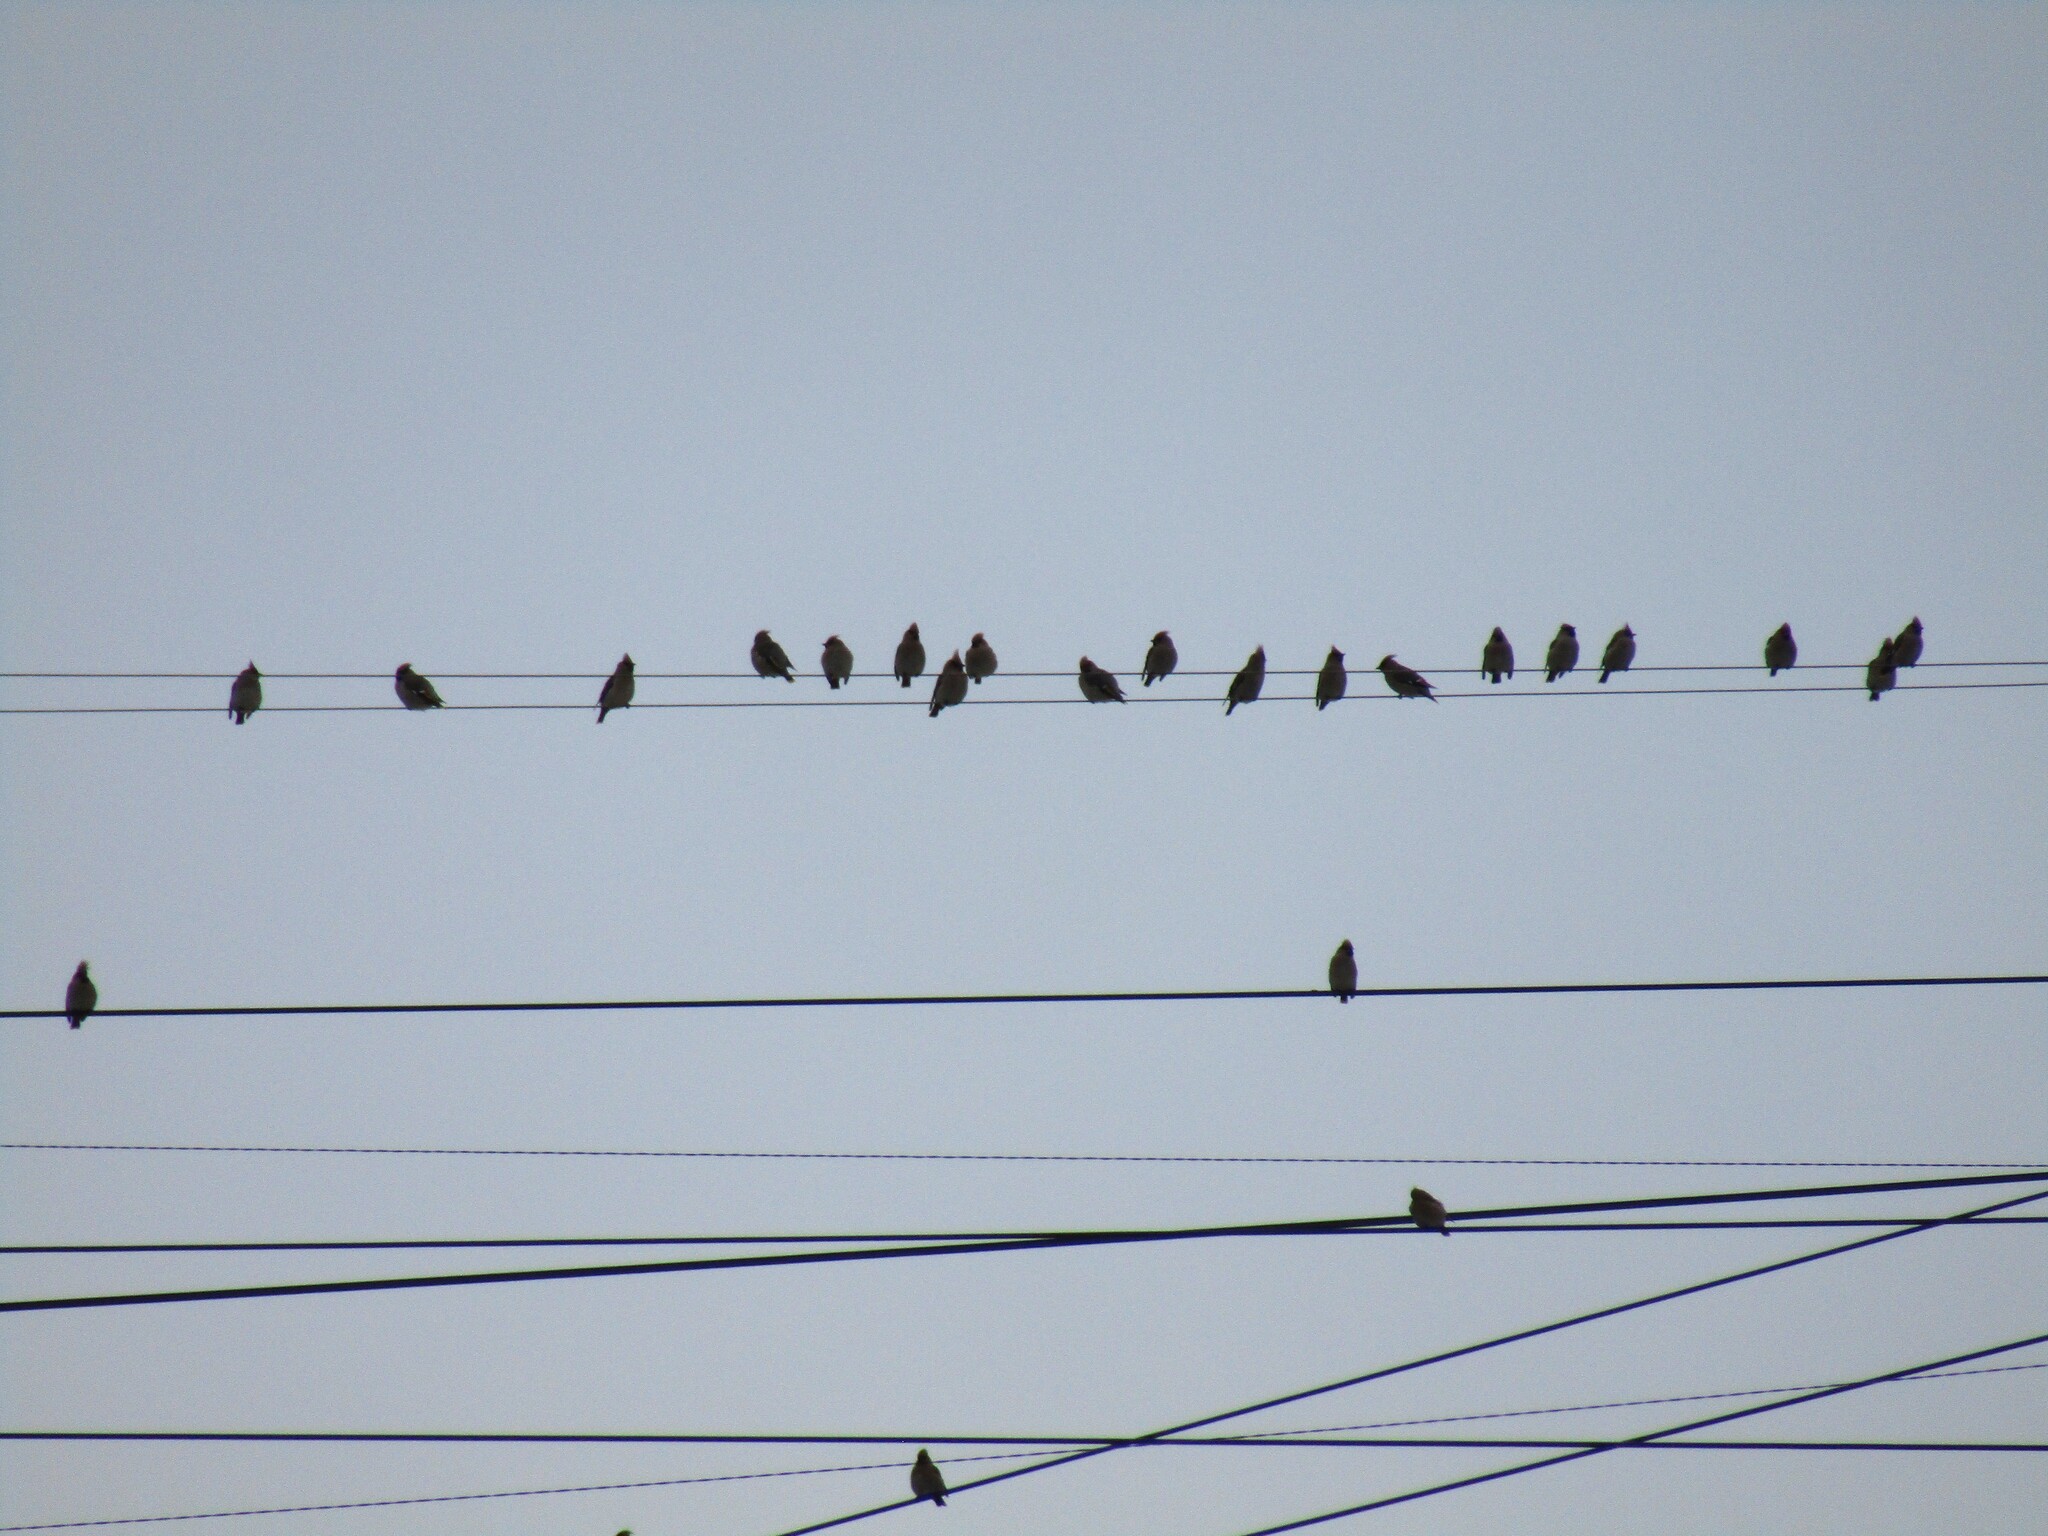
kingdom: Animalia
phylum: Chordata
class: Aves
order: Passeriformes
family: Bombycillidae
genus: Bombycilla
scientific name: Bombycilla garrulus
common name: Bohemian waxwing
